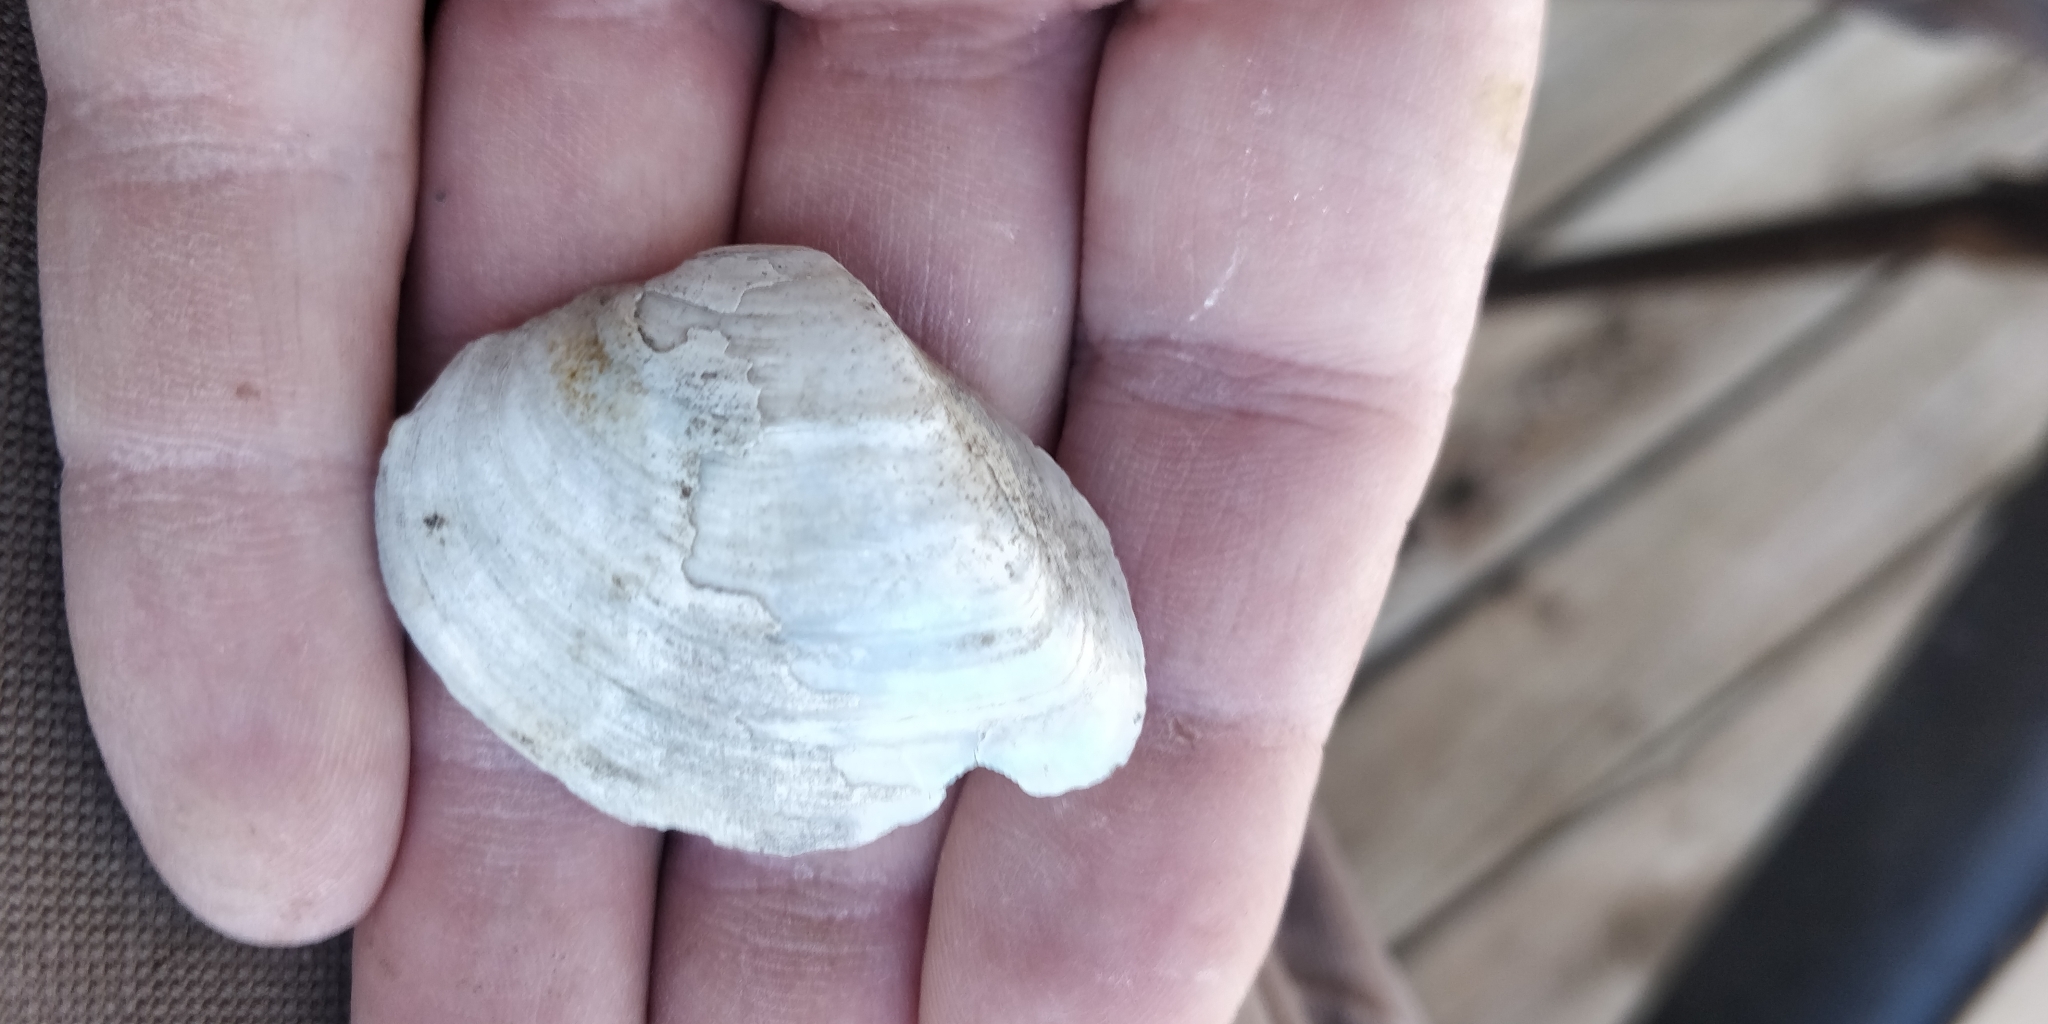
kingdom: Animalia
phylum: Mollusca
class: Bivalvia
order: Unionida
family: Unionidae
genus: Truncilla
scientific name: Truncilla truncata
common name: Deertoe
